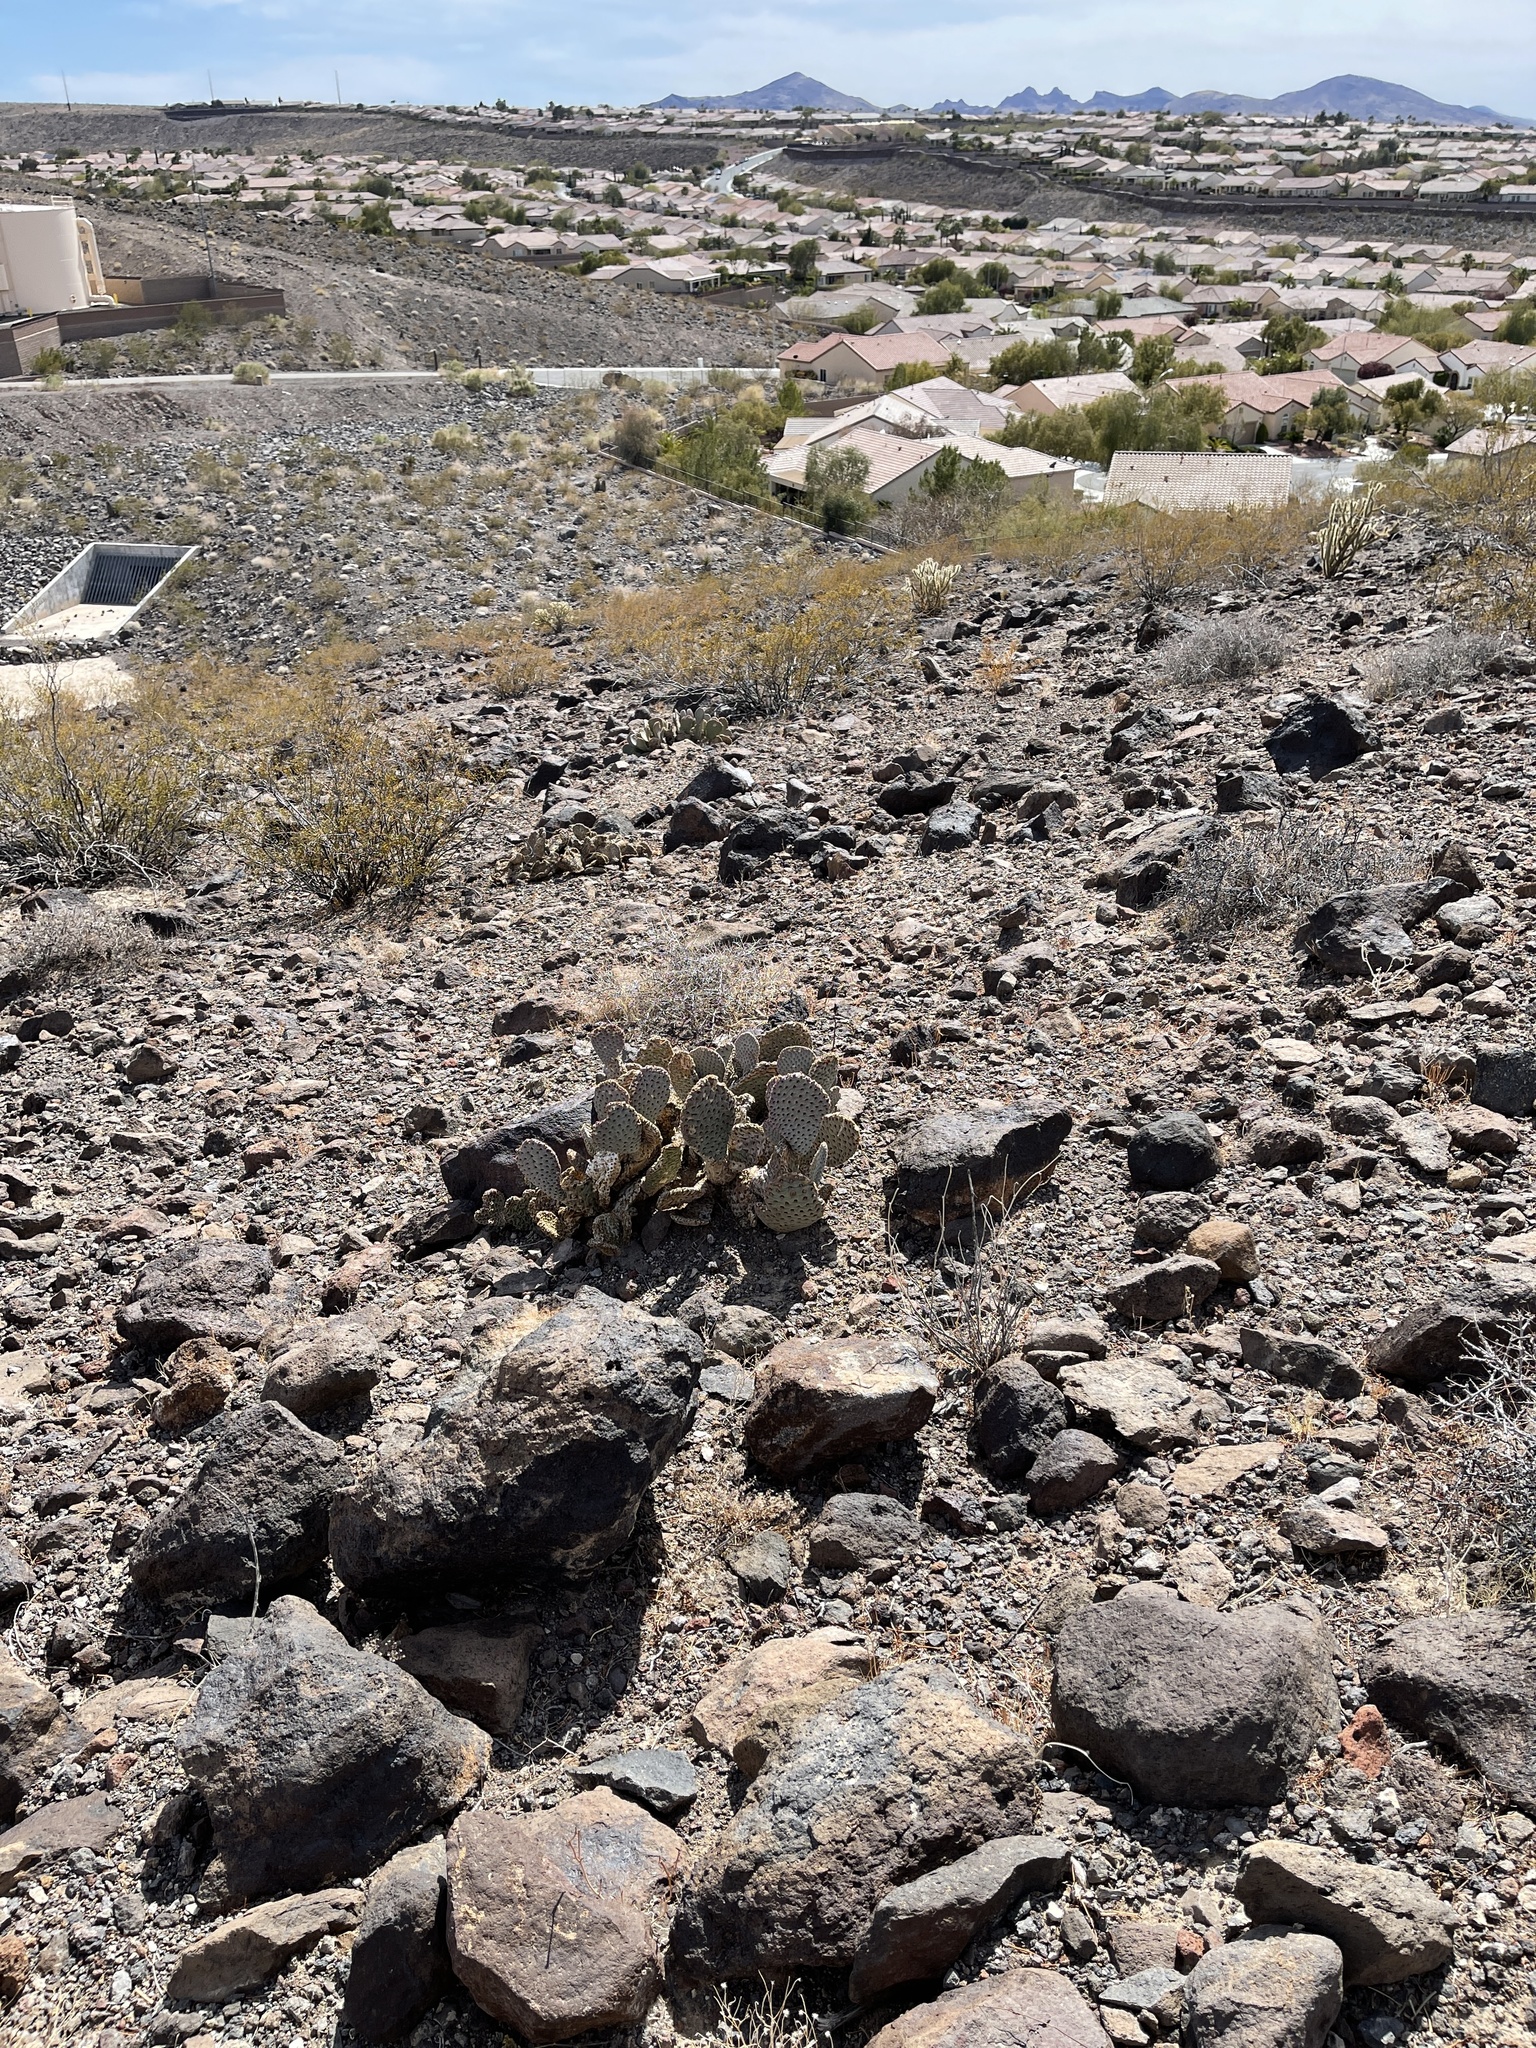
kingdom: Plantae
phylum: Tracheophyta
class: Magnoliopsida
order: Caryophyllales
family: Cactaceae
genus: Opuntia
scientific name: Opuntia basilaris
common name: Beavertail prickly-pear
